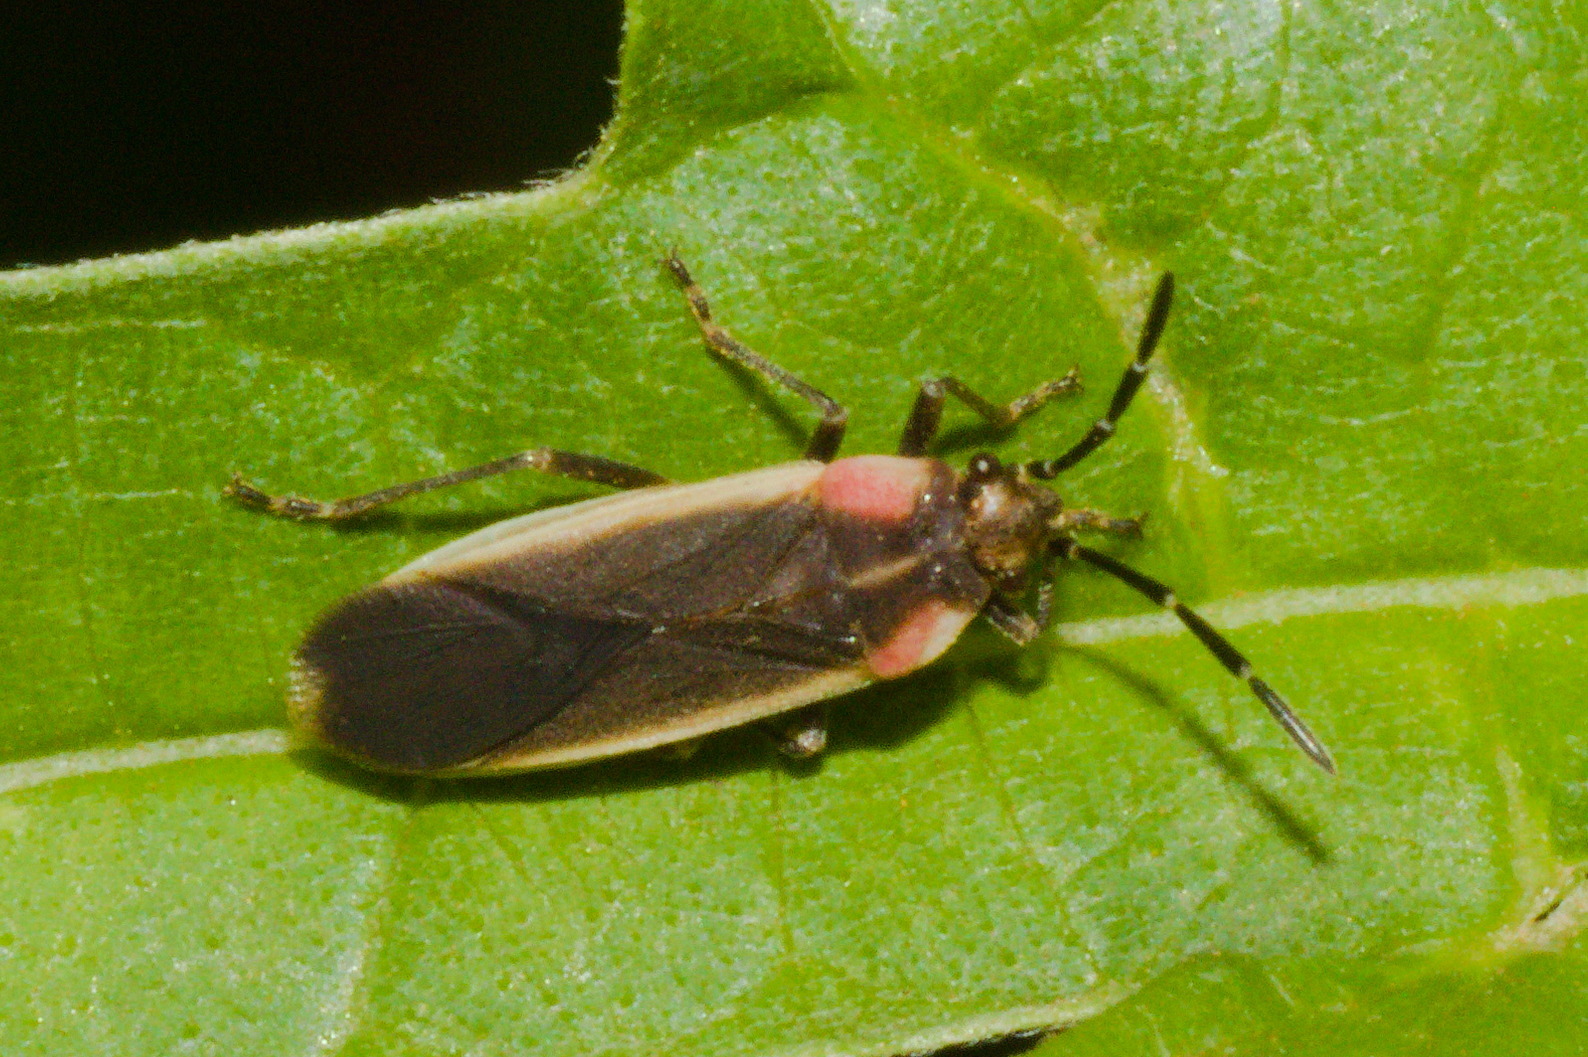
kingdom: Animalia
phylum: Arthropoda
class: Insecta
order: Hemiptera
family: Lygaeidae
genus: Acroleucus
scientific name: Acroleucus coxalis
